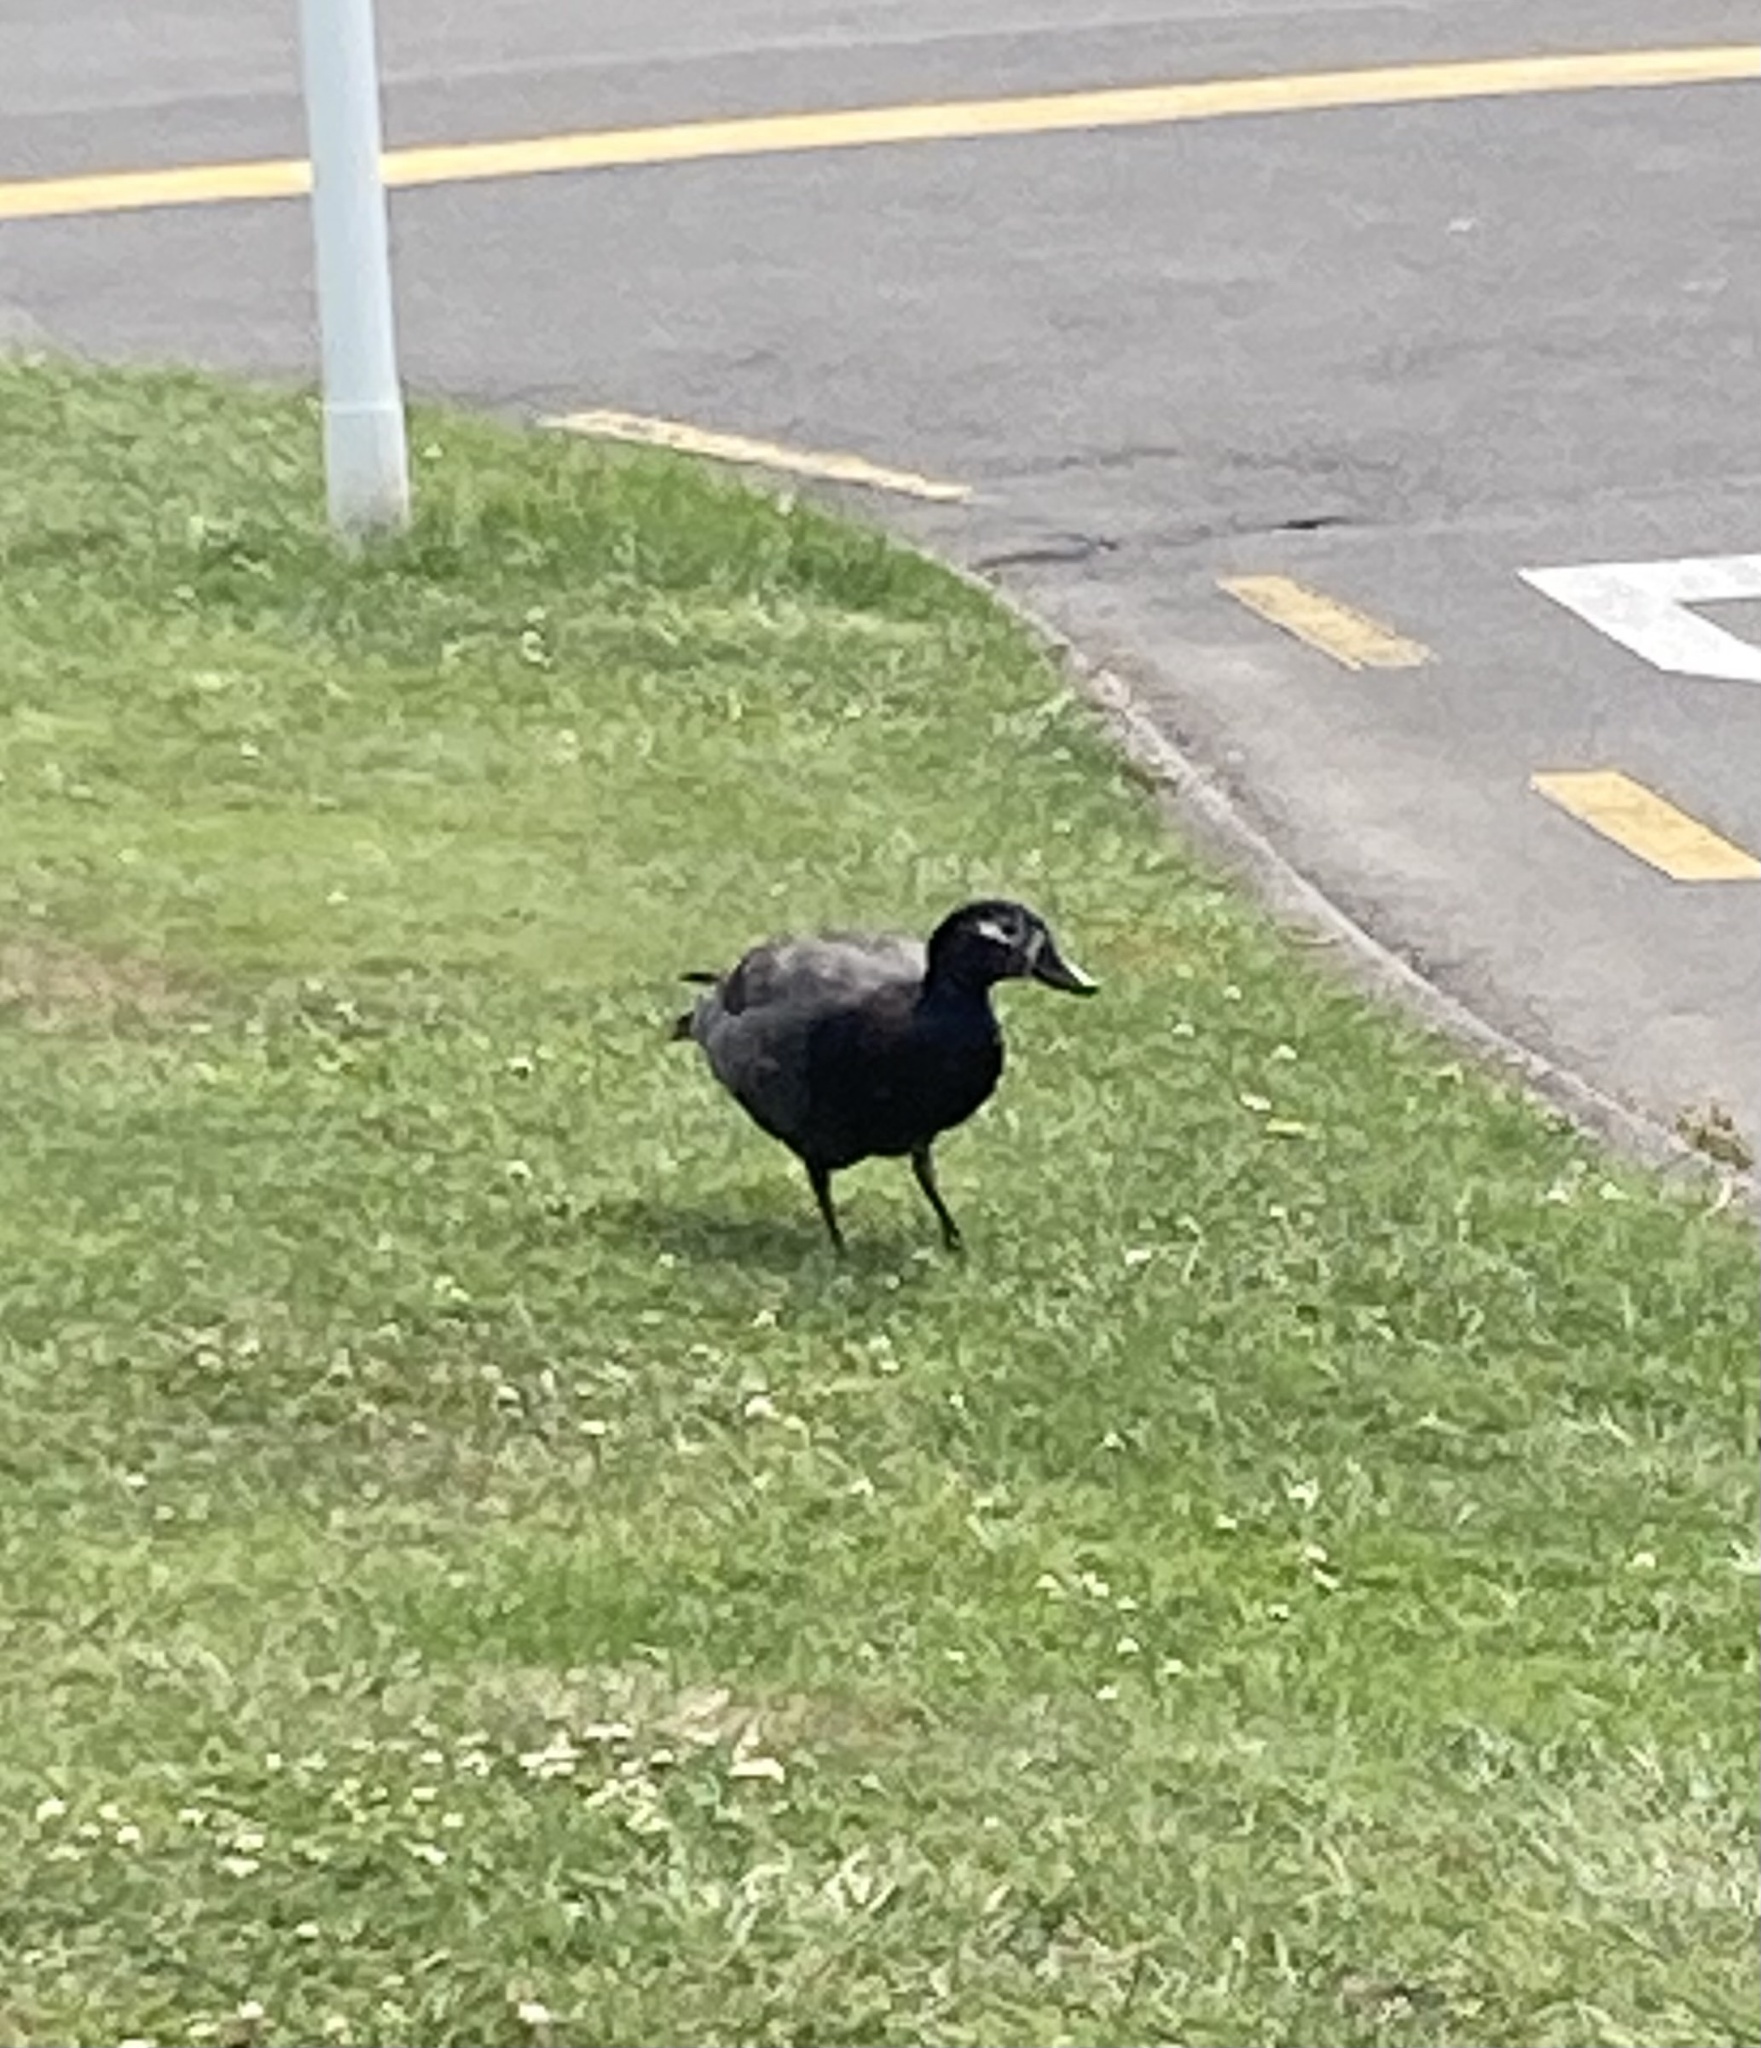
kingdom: Animalia
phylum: Chordata
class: Aves
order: Anseriformes
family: Anatidae
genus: Tadorna
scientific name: Tadorna variegata
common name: Paradise shelduck
